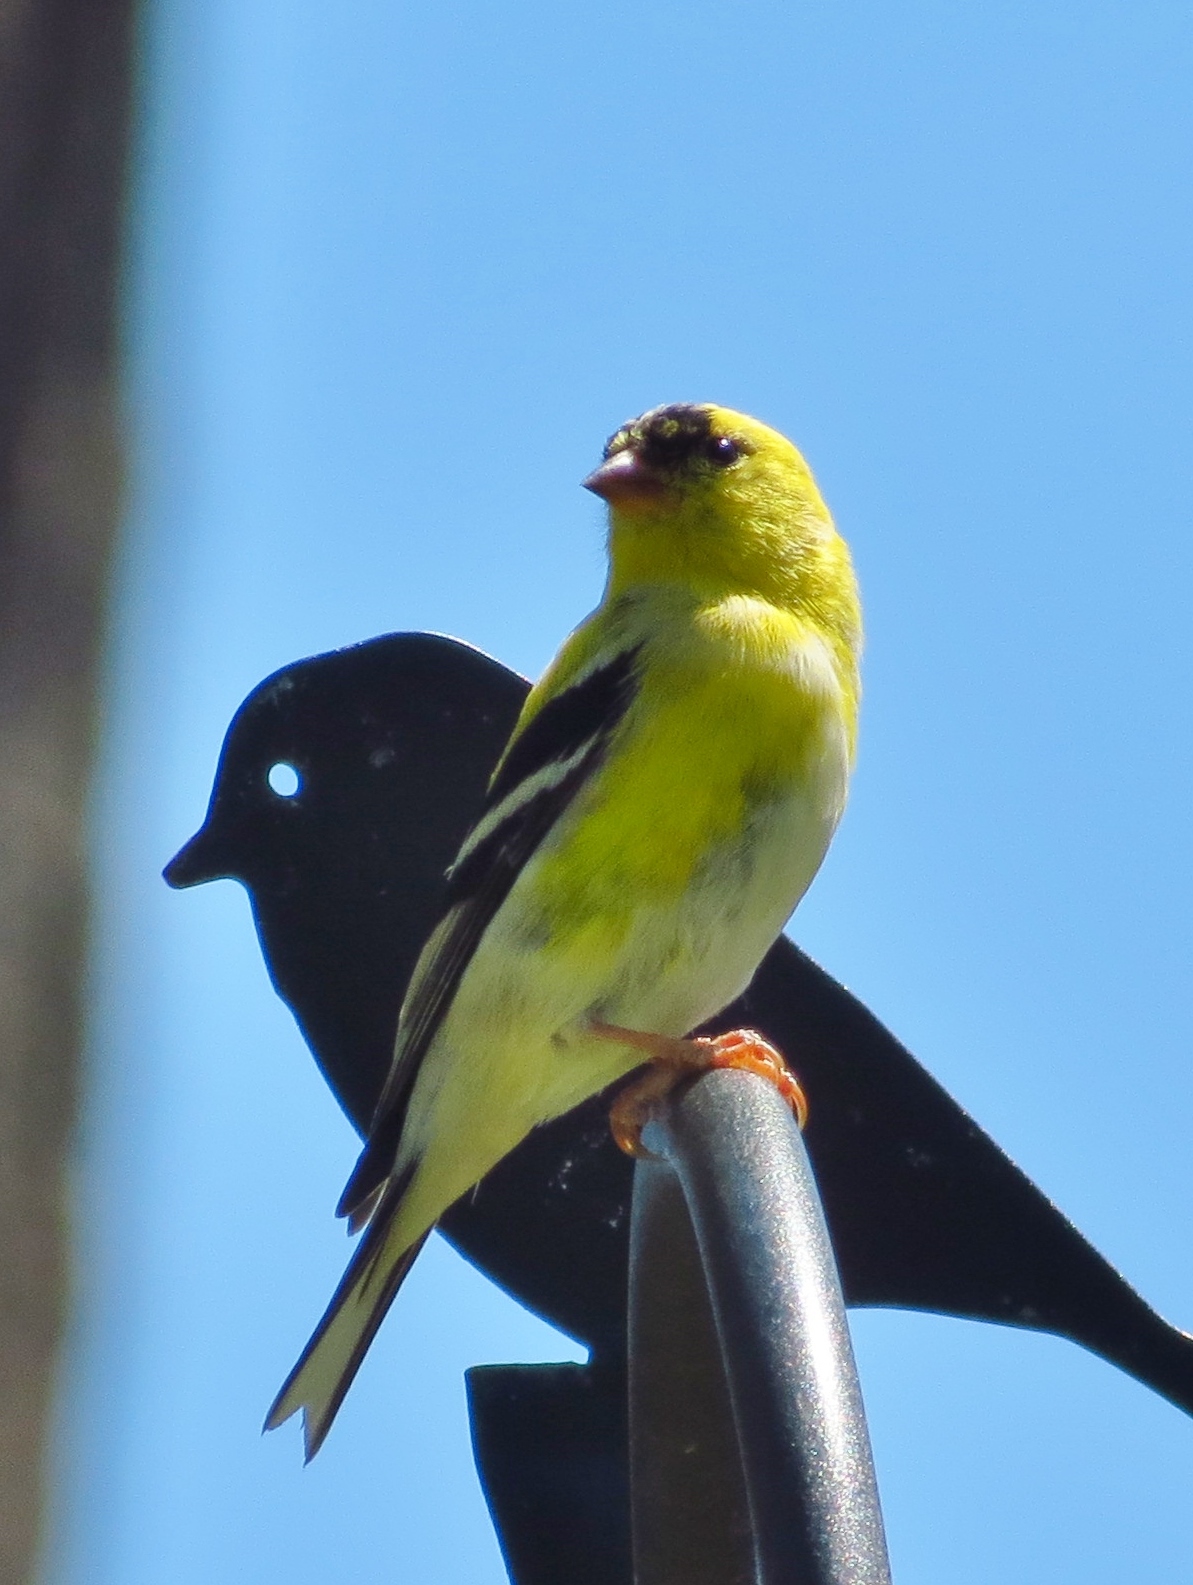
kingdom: Animalia
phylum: Chordata
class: Aves
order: Passeriformes
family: Fringillidae
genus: Spinus
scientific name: Spinus tristis
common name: American goldfinch
